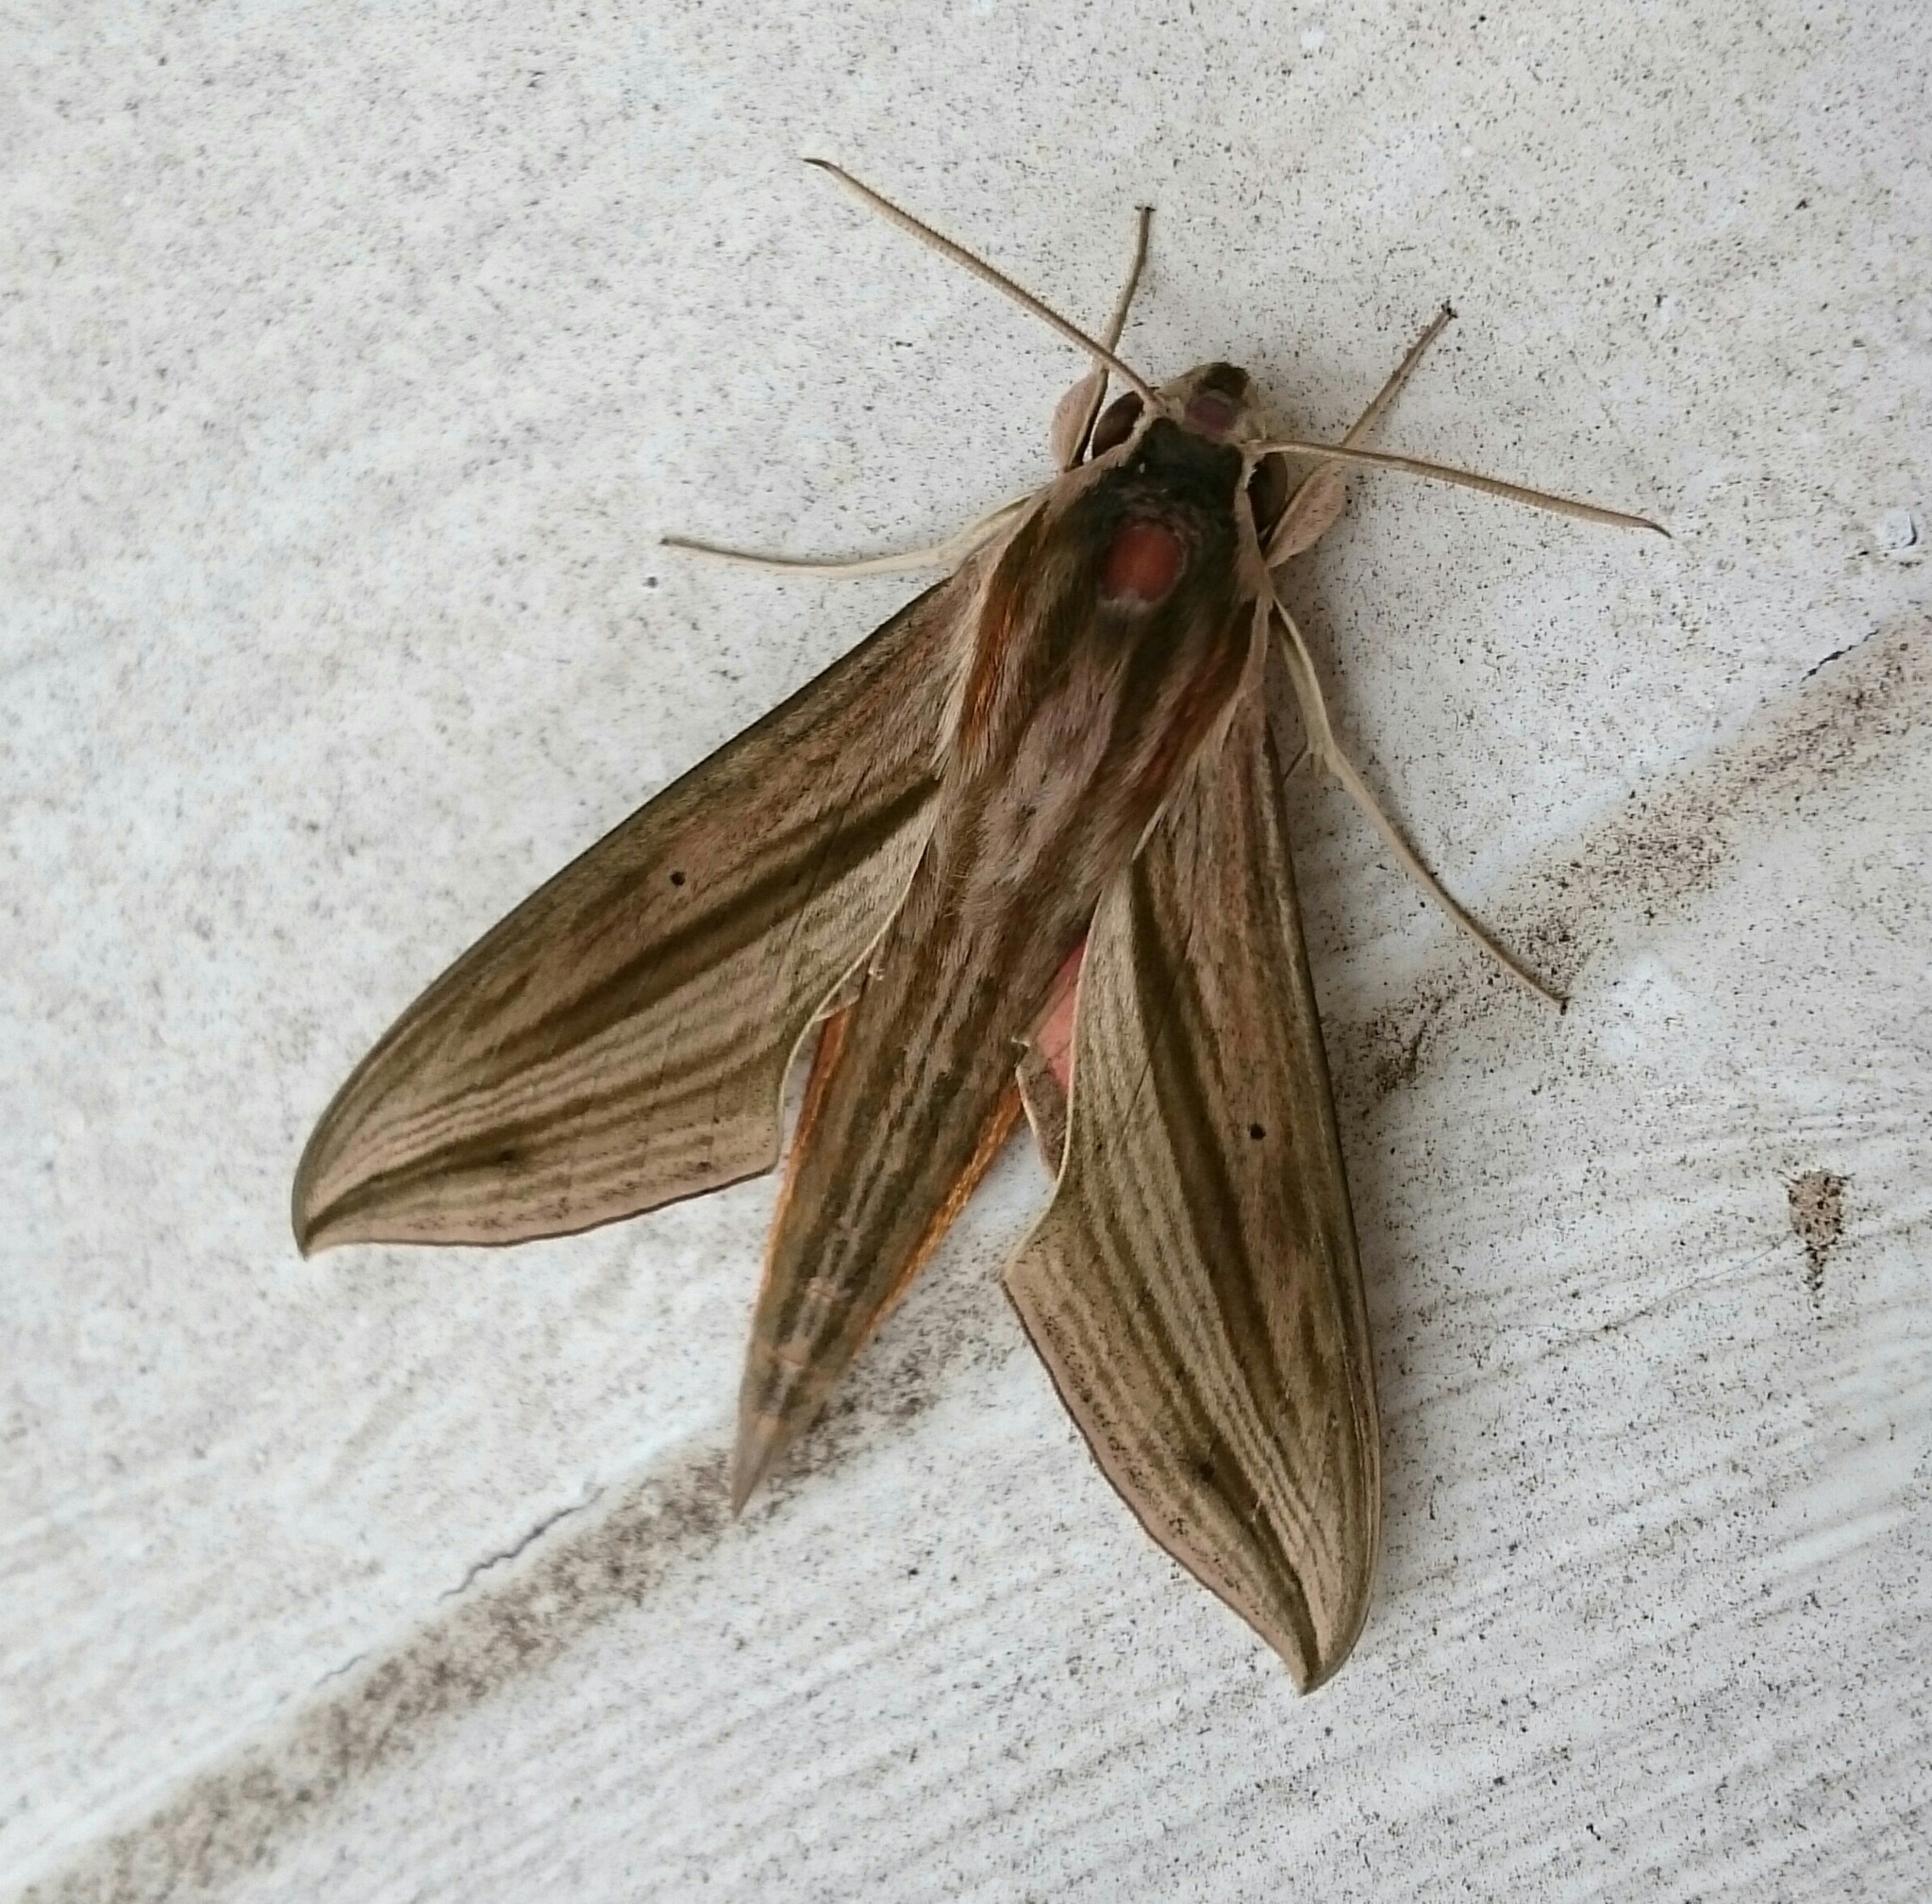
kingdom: Animalia
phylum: Arthropoda
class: Insecta
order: Lepidoptera
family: Sphingidae
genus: Hippotion
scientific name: Hippotion eson
